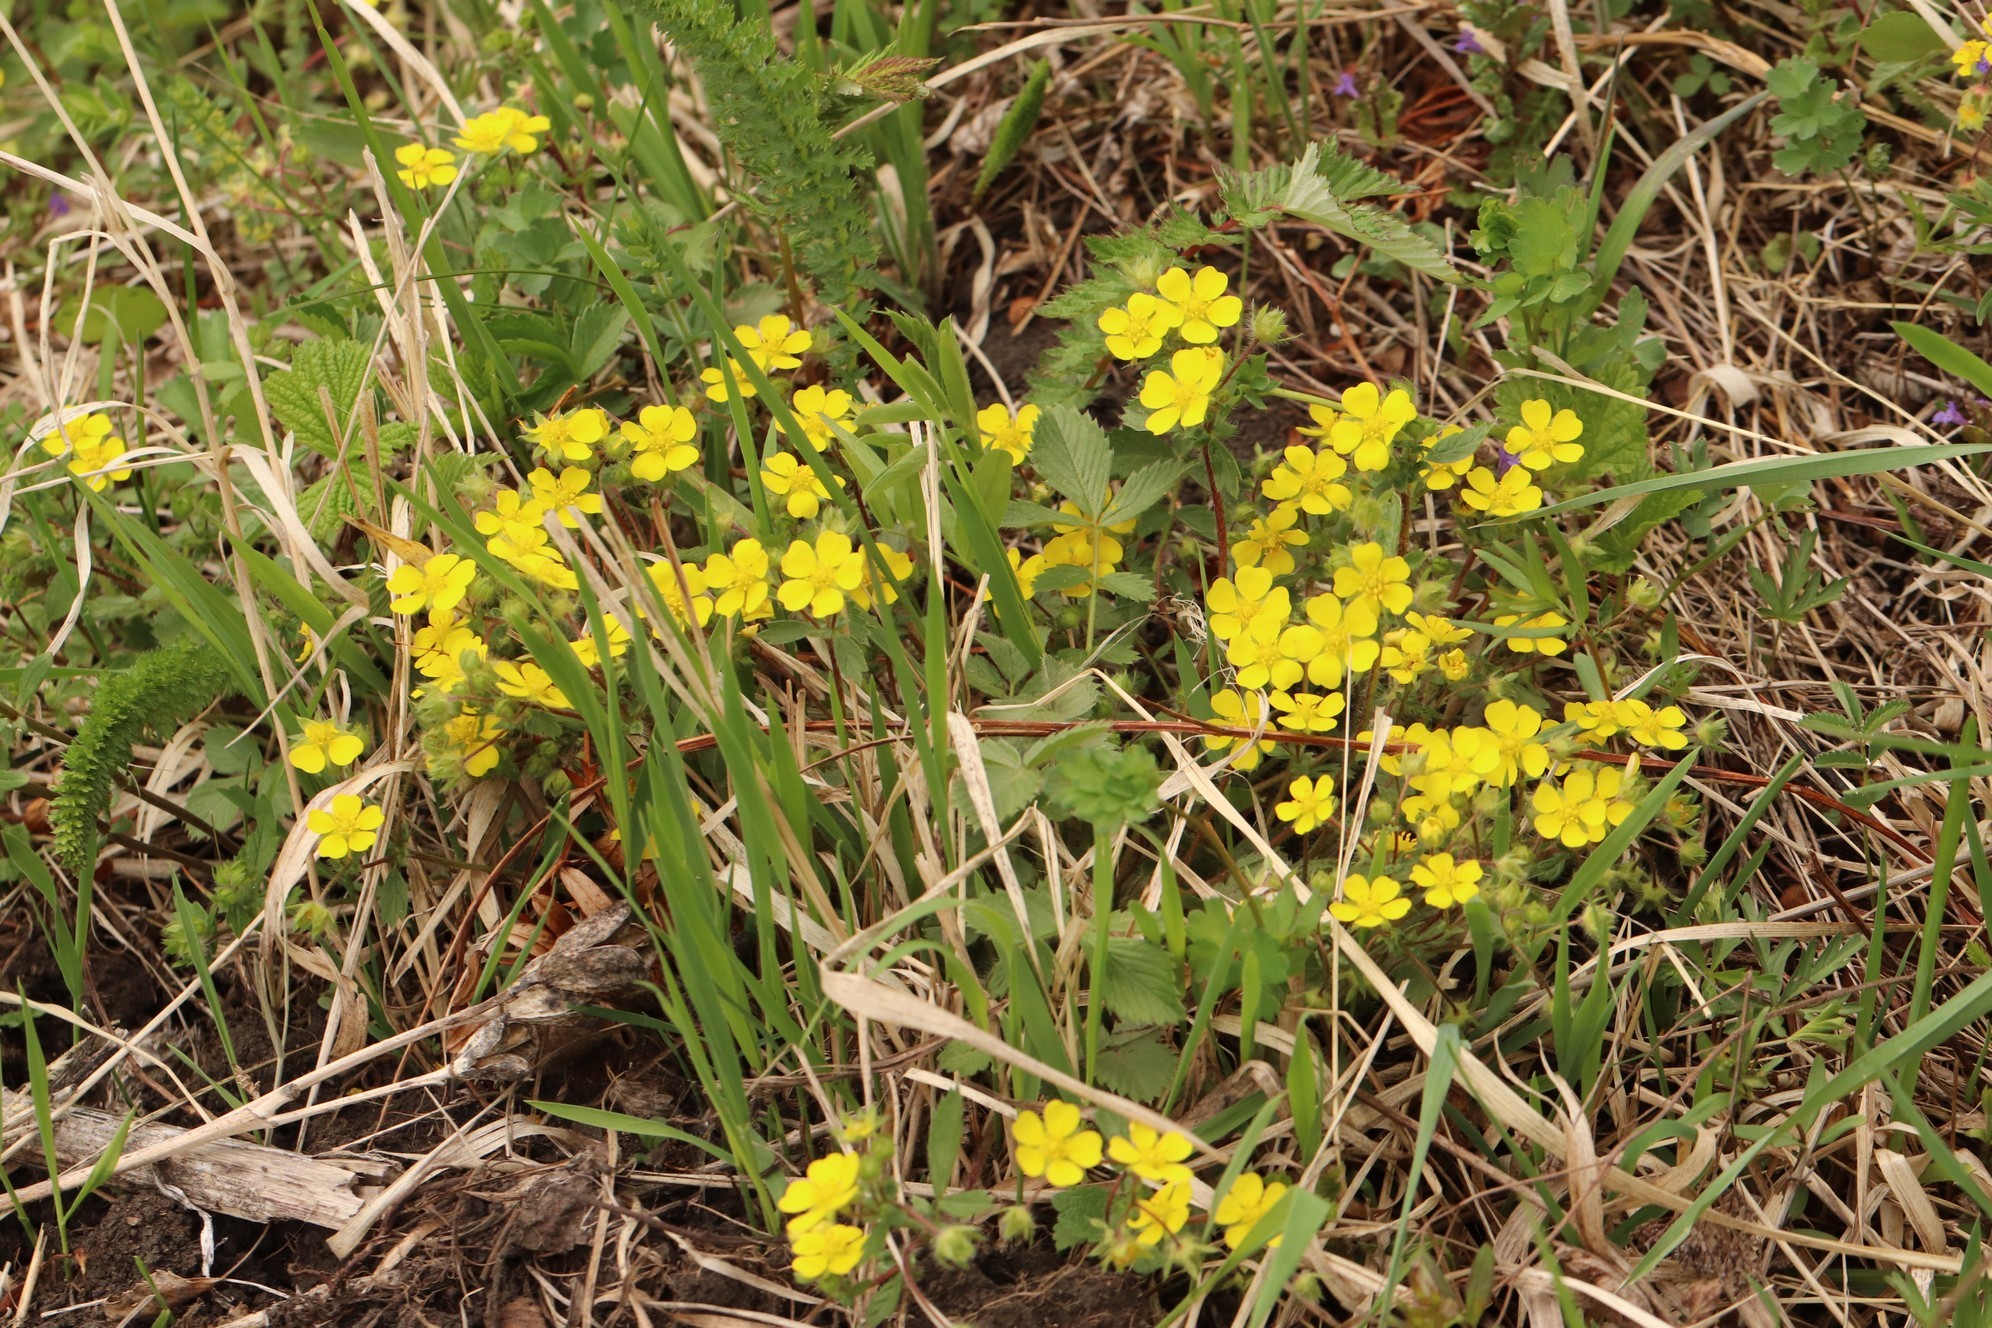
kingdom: Plantae
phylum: Tracheophyta
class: Magnoliopsida
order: Rosales
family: Rosaceae
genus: Potentilla
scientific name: Potentilla fragarioides
